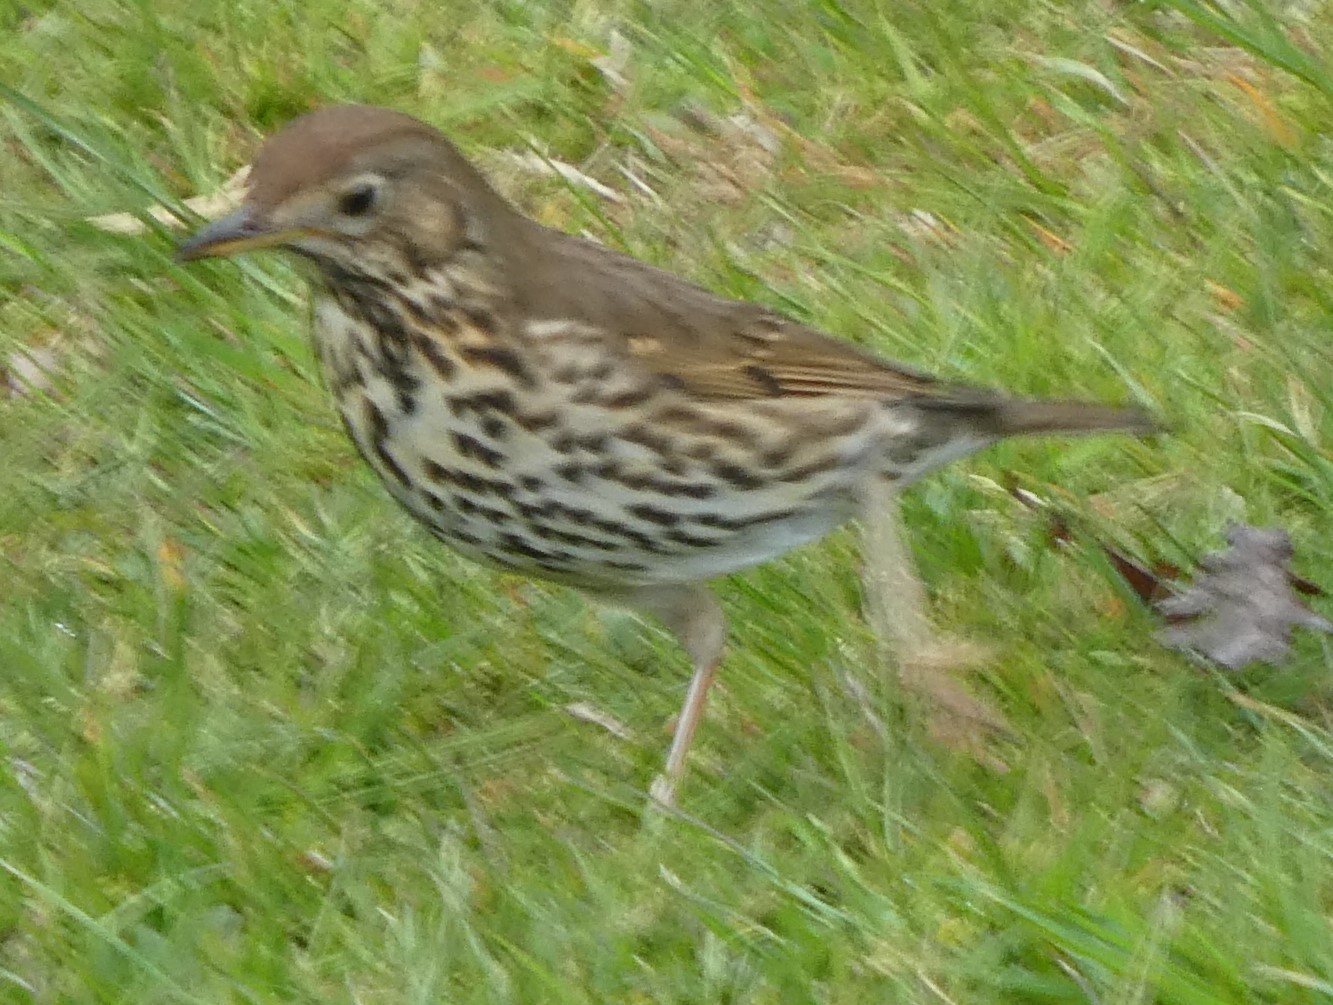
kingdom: Animalia
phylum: Chordata
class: Aves
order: Passeriformes
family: Turdidae
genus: Turdus
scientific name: Turdus philomelos
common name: Song thrush
